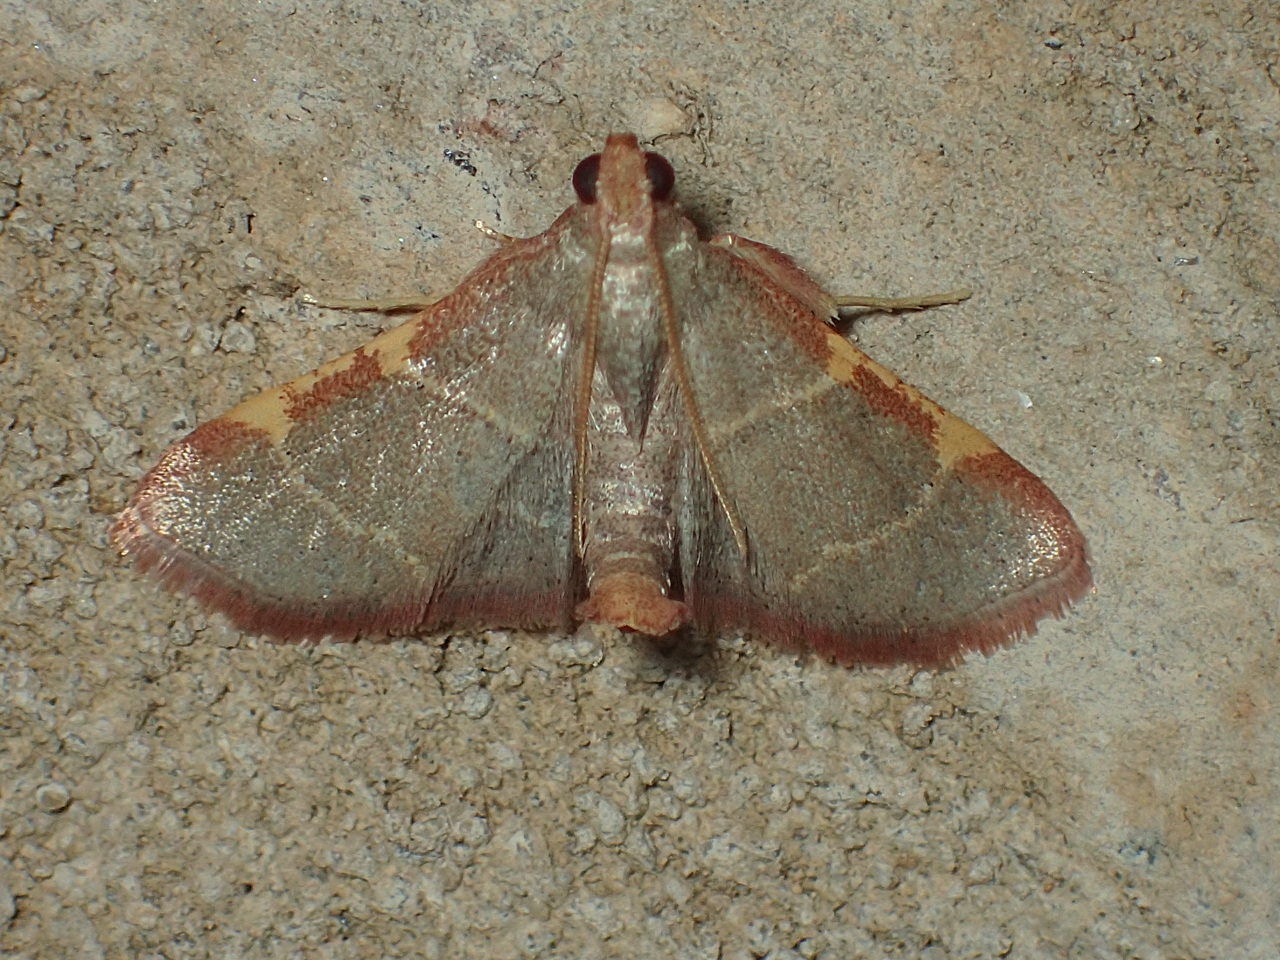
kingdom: Animalia
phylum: Arthropoda
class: Insecta
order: Lepidoptera
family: Pyralidae
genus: Hypsopygia
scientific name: Hypsopygia binodulalis
